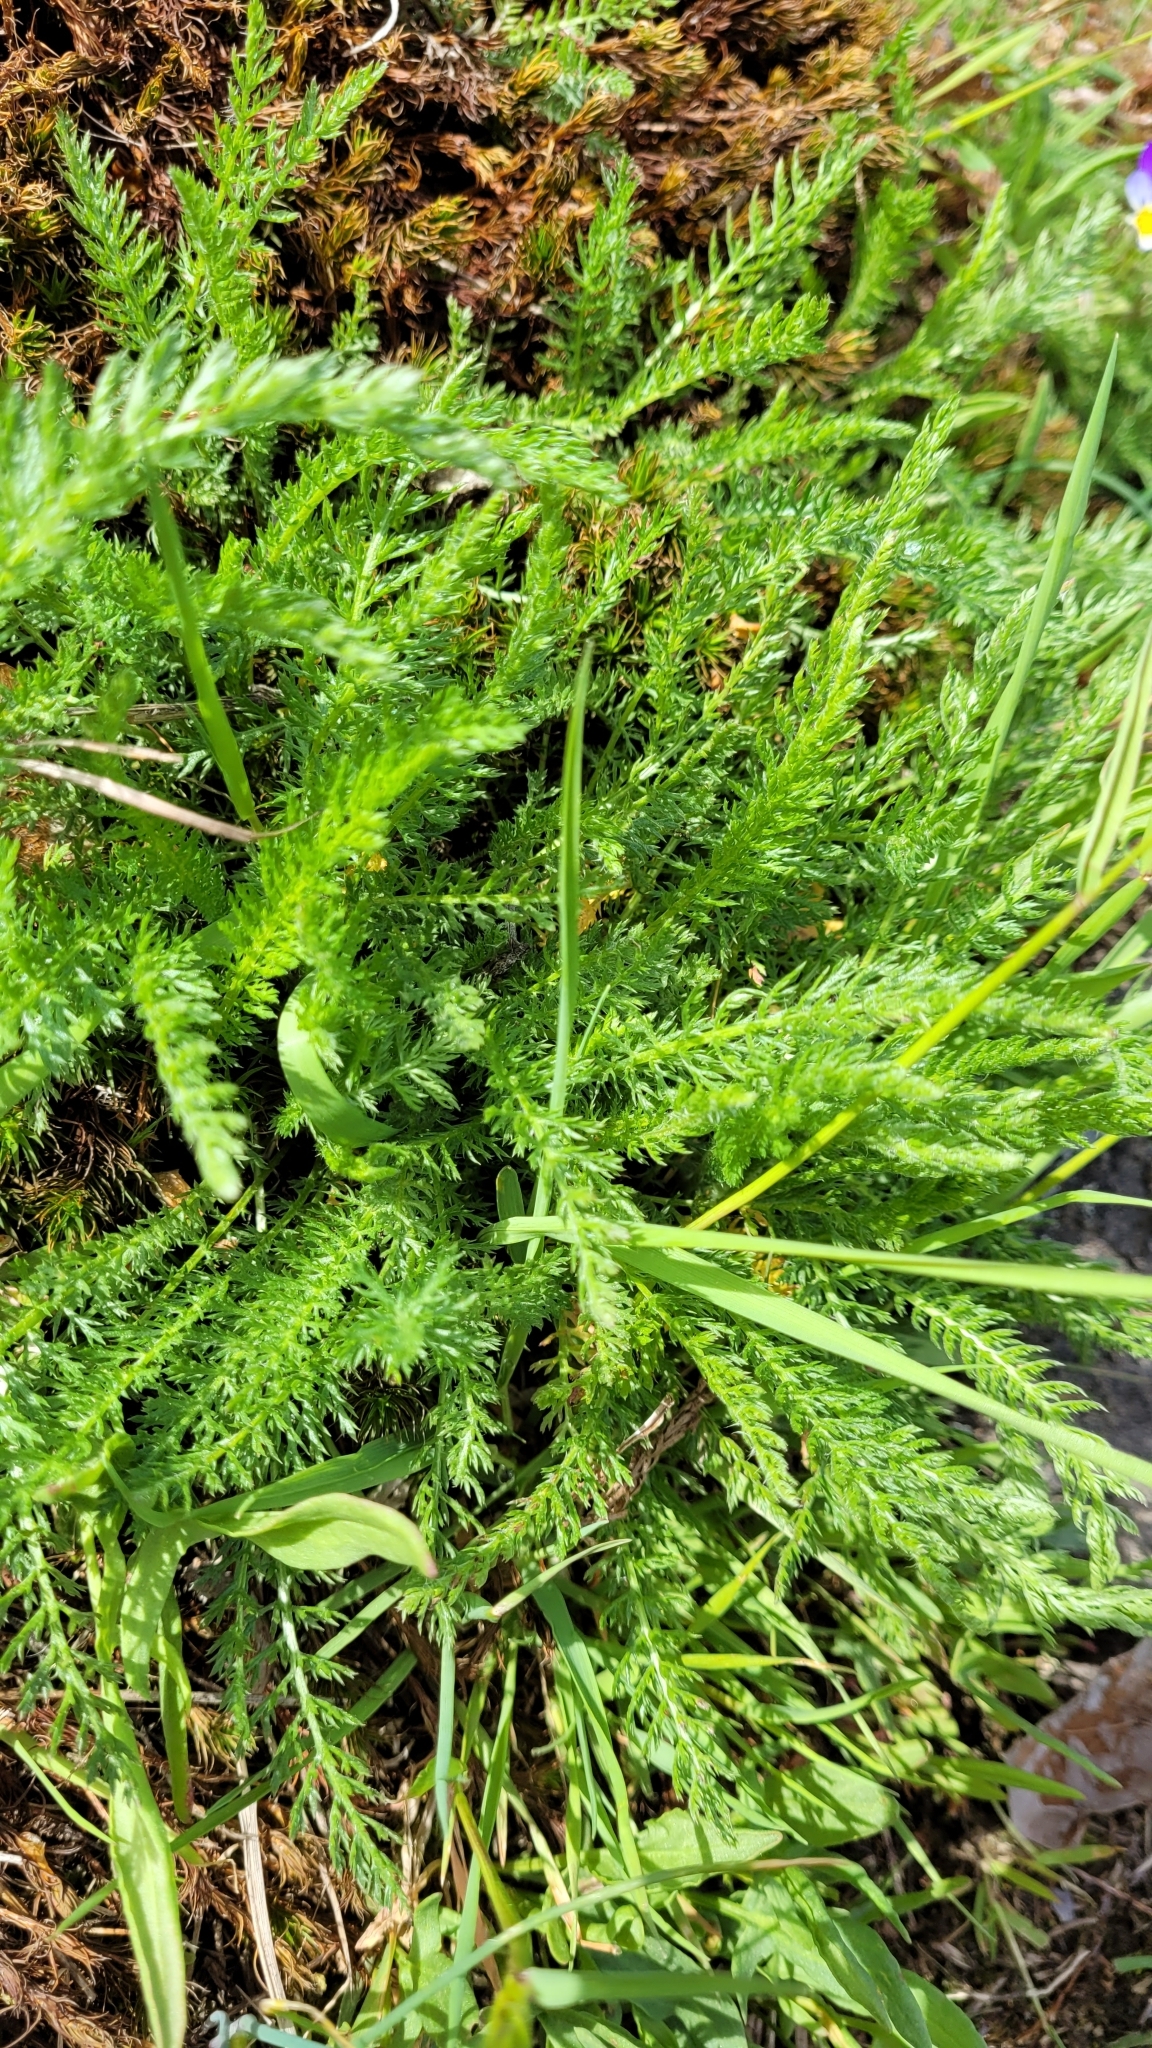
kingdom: Plantae
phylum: Tracheophyta
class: Magnoliopsida
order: Asterales
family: Asteraceae
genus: Achillea
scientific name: Achillea millefolium
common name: Yarrow
